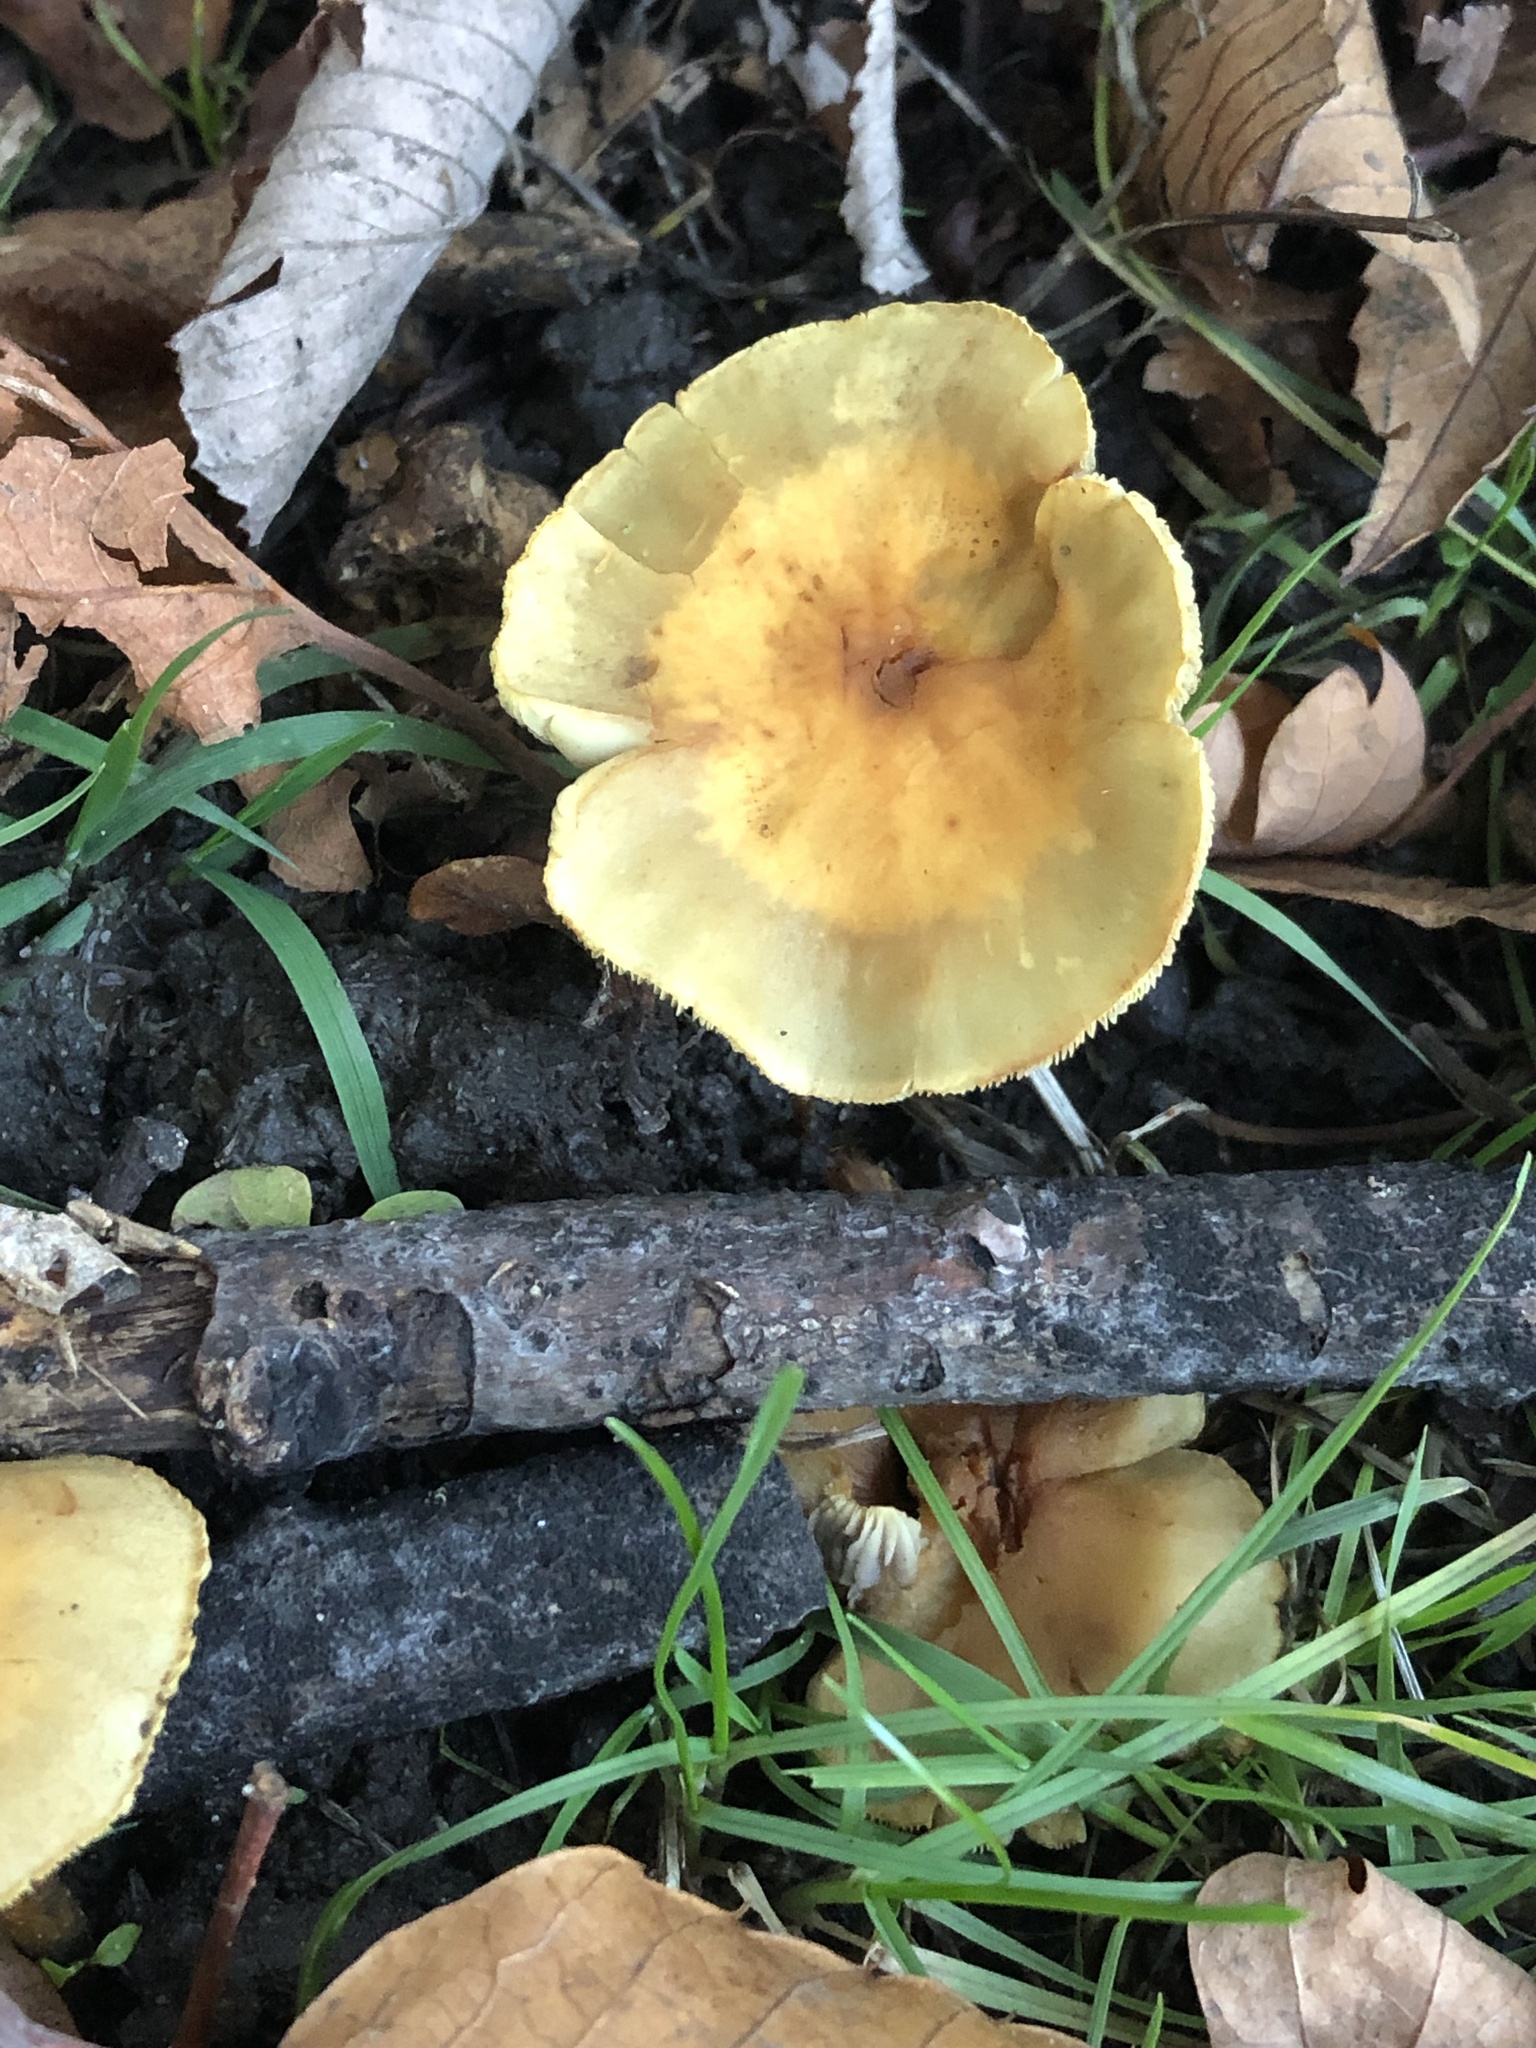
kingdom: Fungi
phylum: Basidiomycota
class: Agaricomycetes
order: Agaricales
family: Strophariaceae
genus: Hypholoma
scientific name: Hypholoma fasciculare
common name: Sulphur tuft
